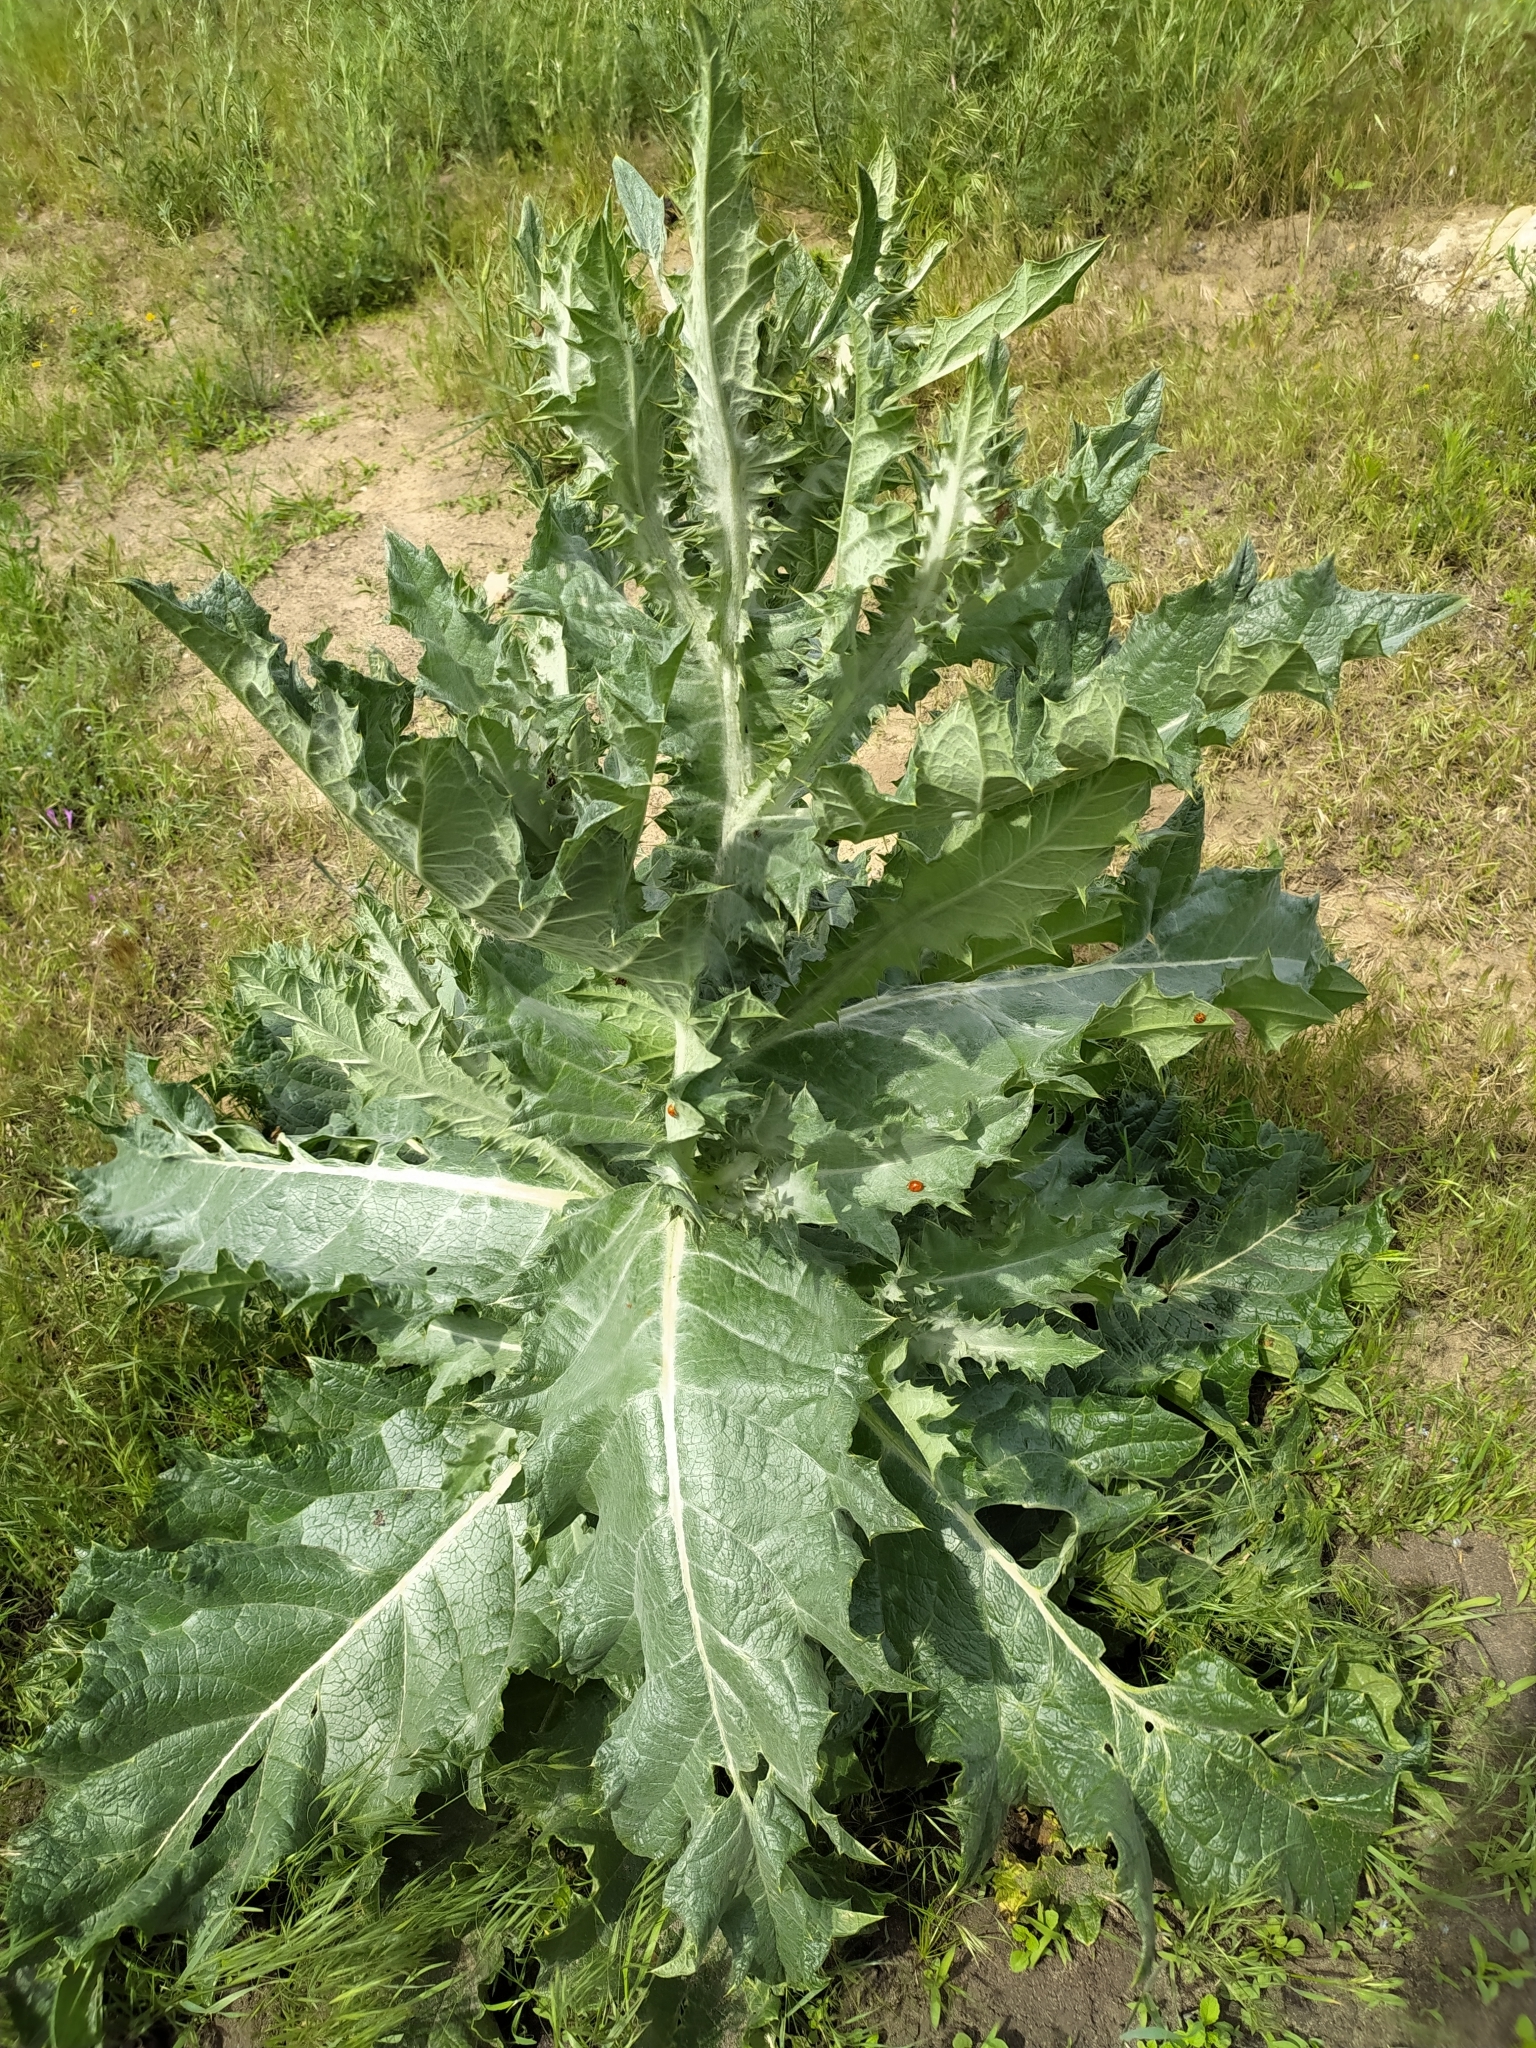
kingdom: Plantae
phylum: Tracheophyta
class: Magnoliopsida
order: Asterales
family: Asteraceae
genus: Onopordum
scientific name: Onopordum acanthium
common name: Scotch thistle
